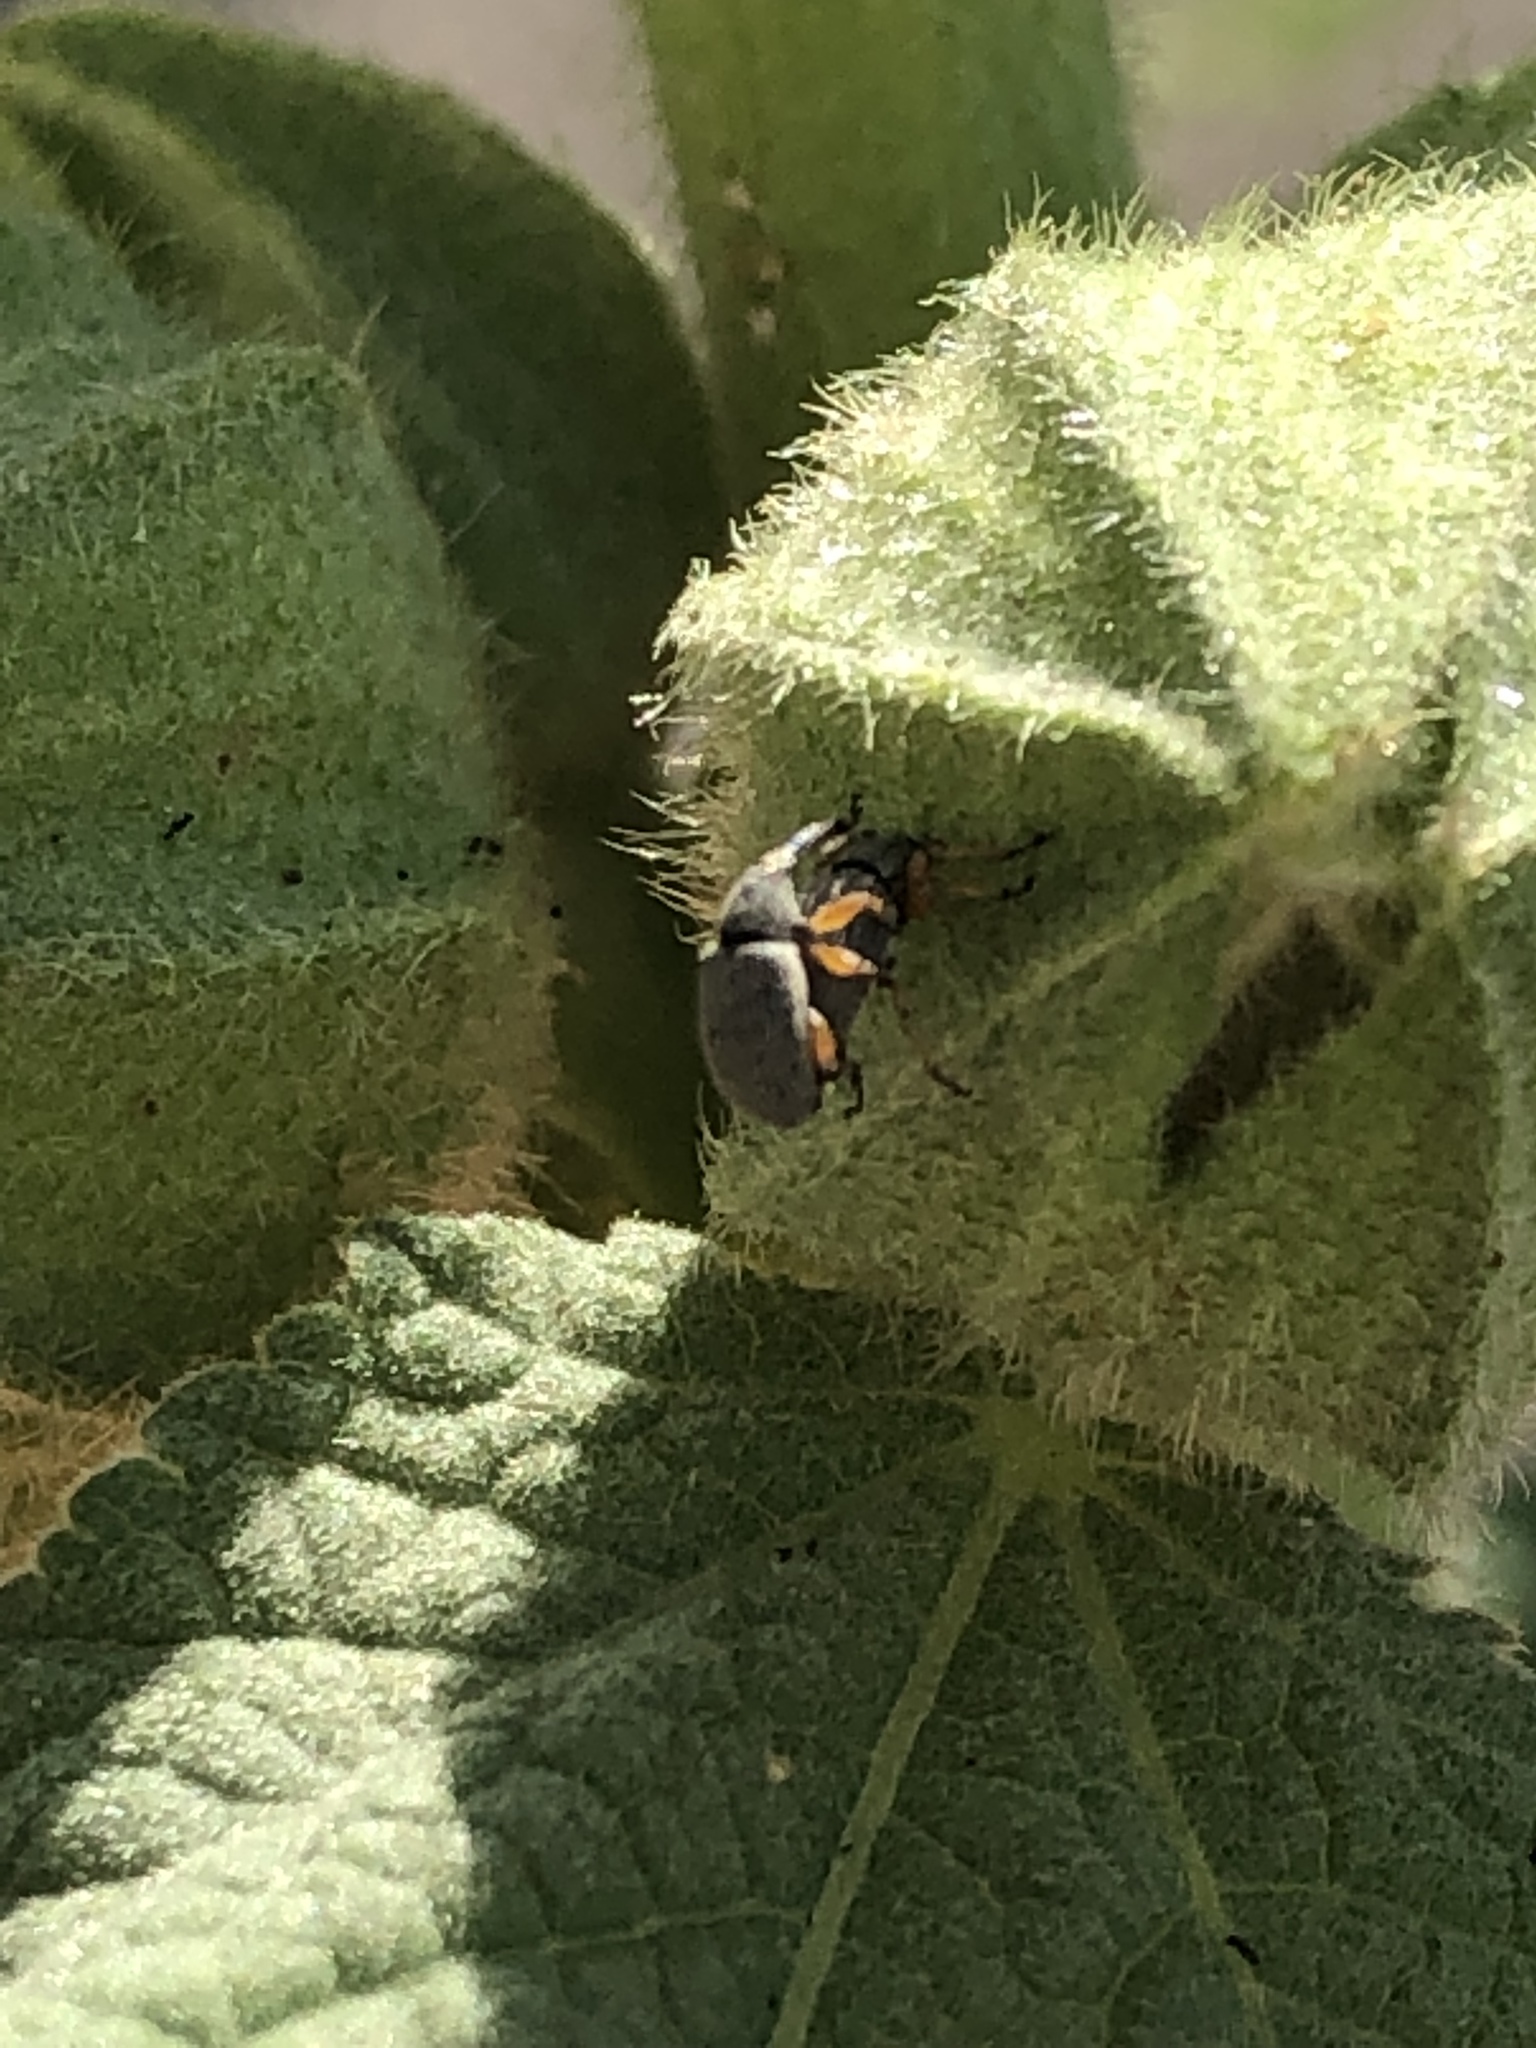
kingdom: Animalia
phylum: Arthropoda
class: Insecta
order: Coleoptera
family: Brentidae
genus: Rhopalapion
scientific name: Rhopalapion longirostre
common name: Hollyhock weevil
